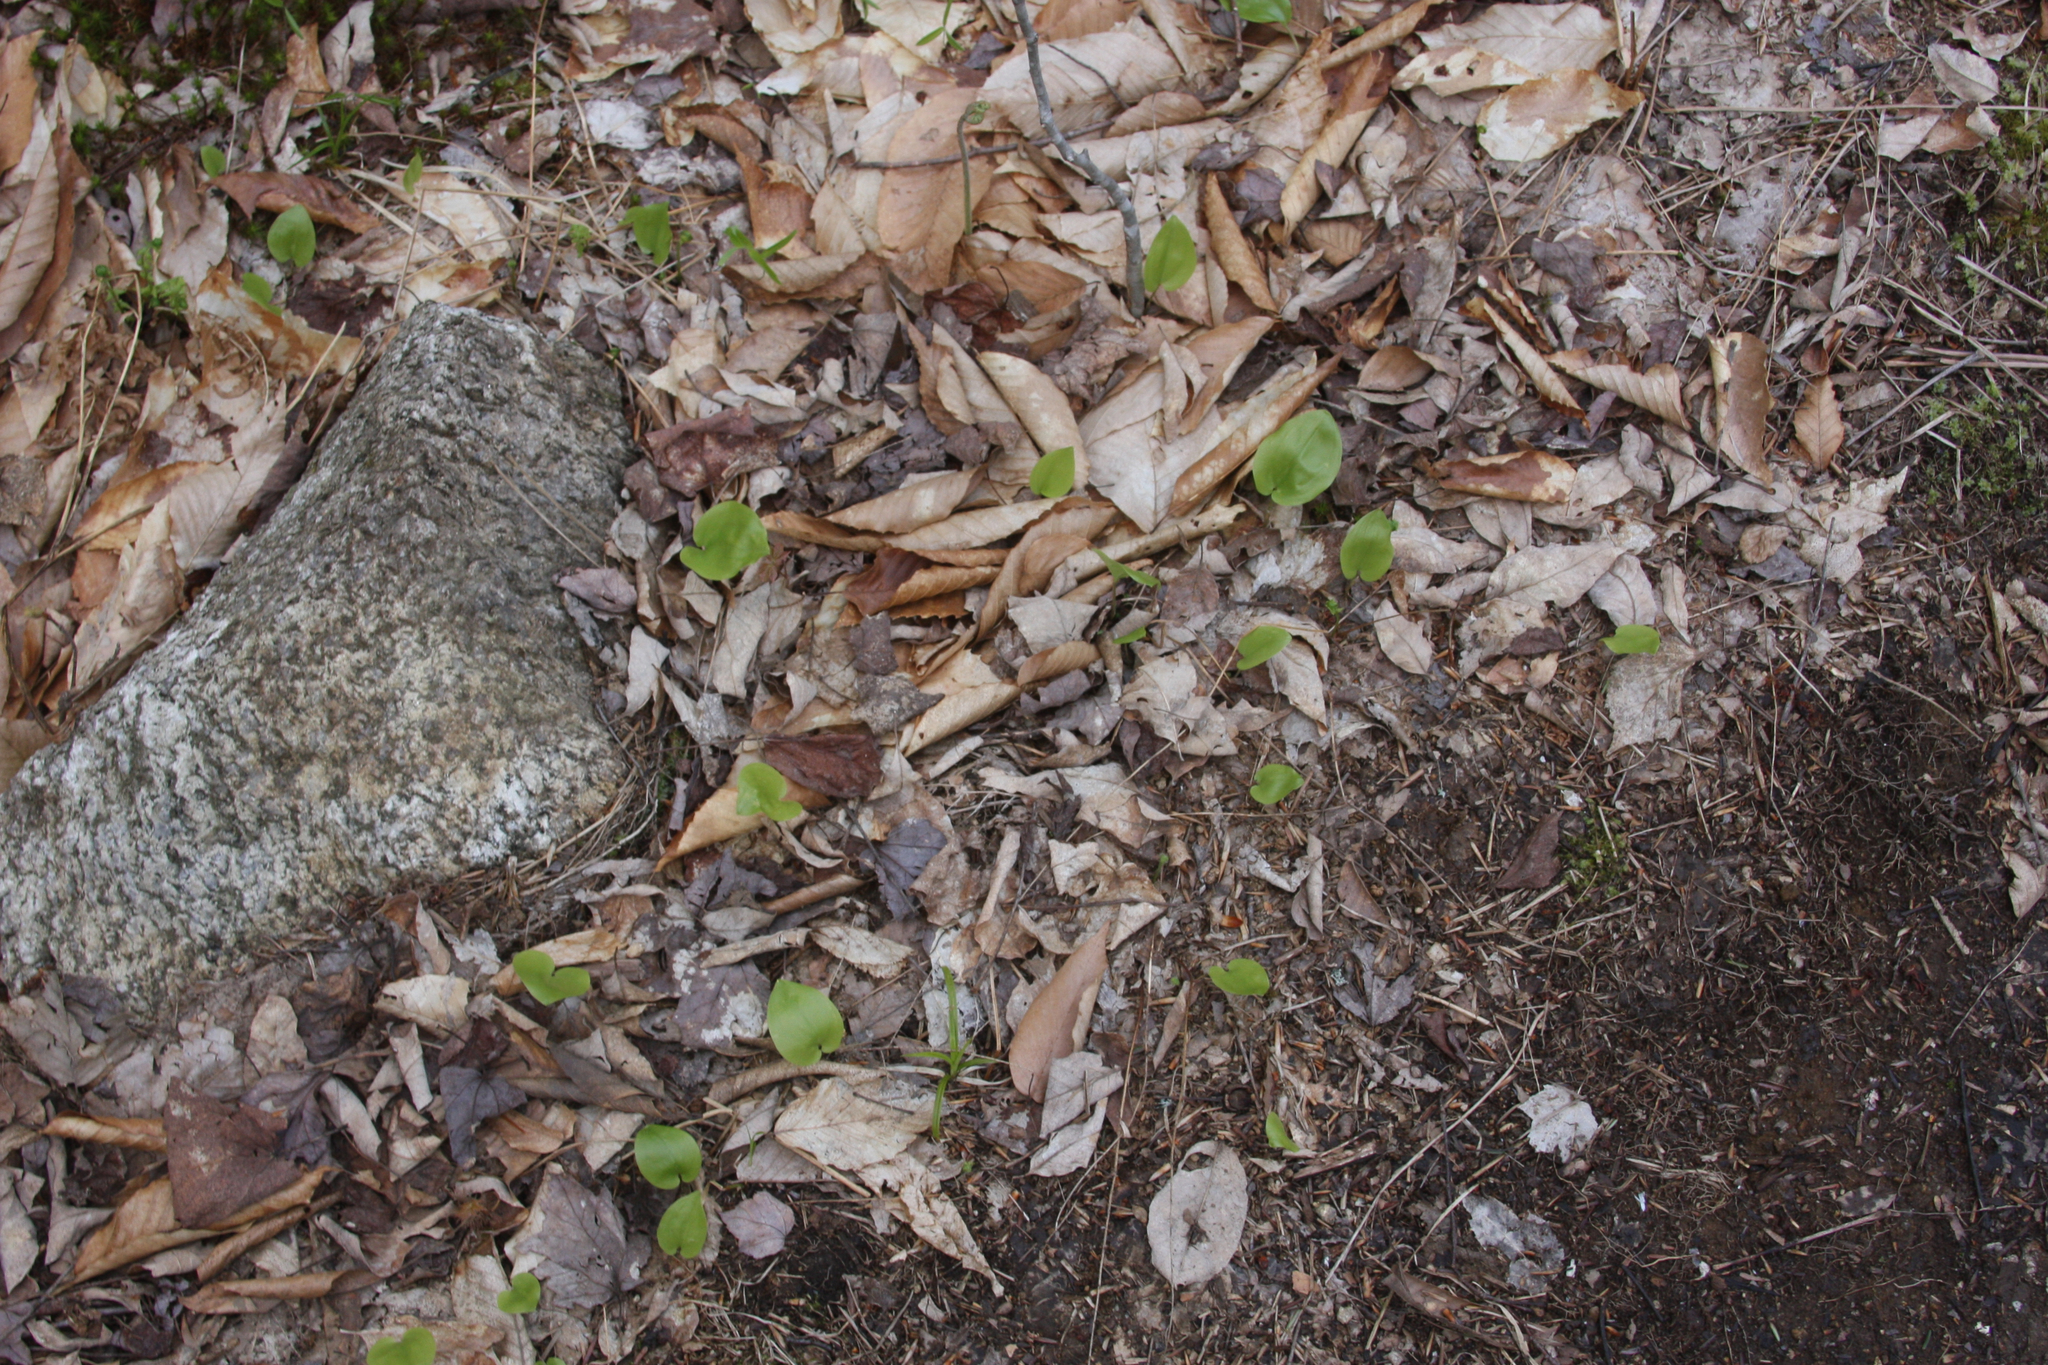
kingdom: Plantae
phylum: Tracheophyta
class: Liliopsida
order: Asparagales
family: Asparagaceae
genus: Maianthemum
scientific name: Maianthemum canadense
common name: False lily-of-the-valley
